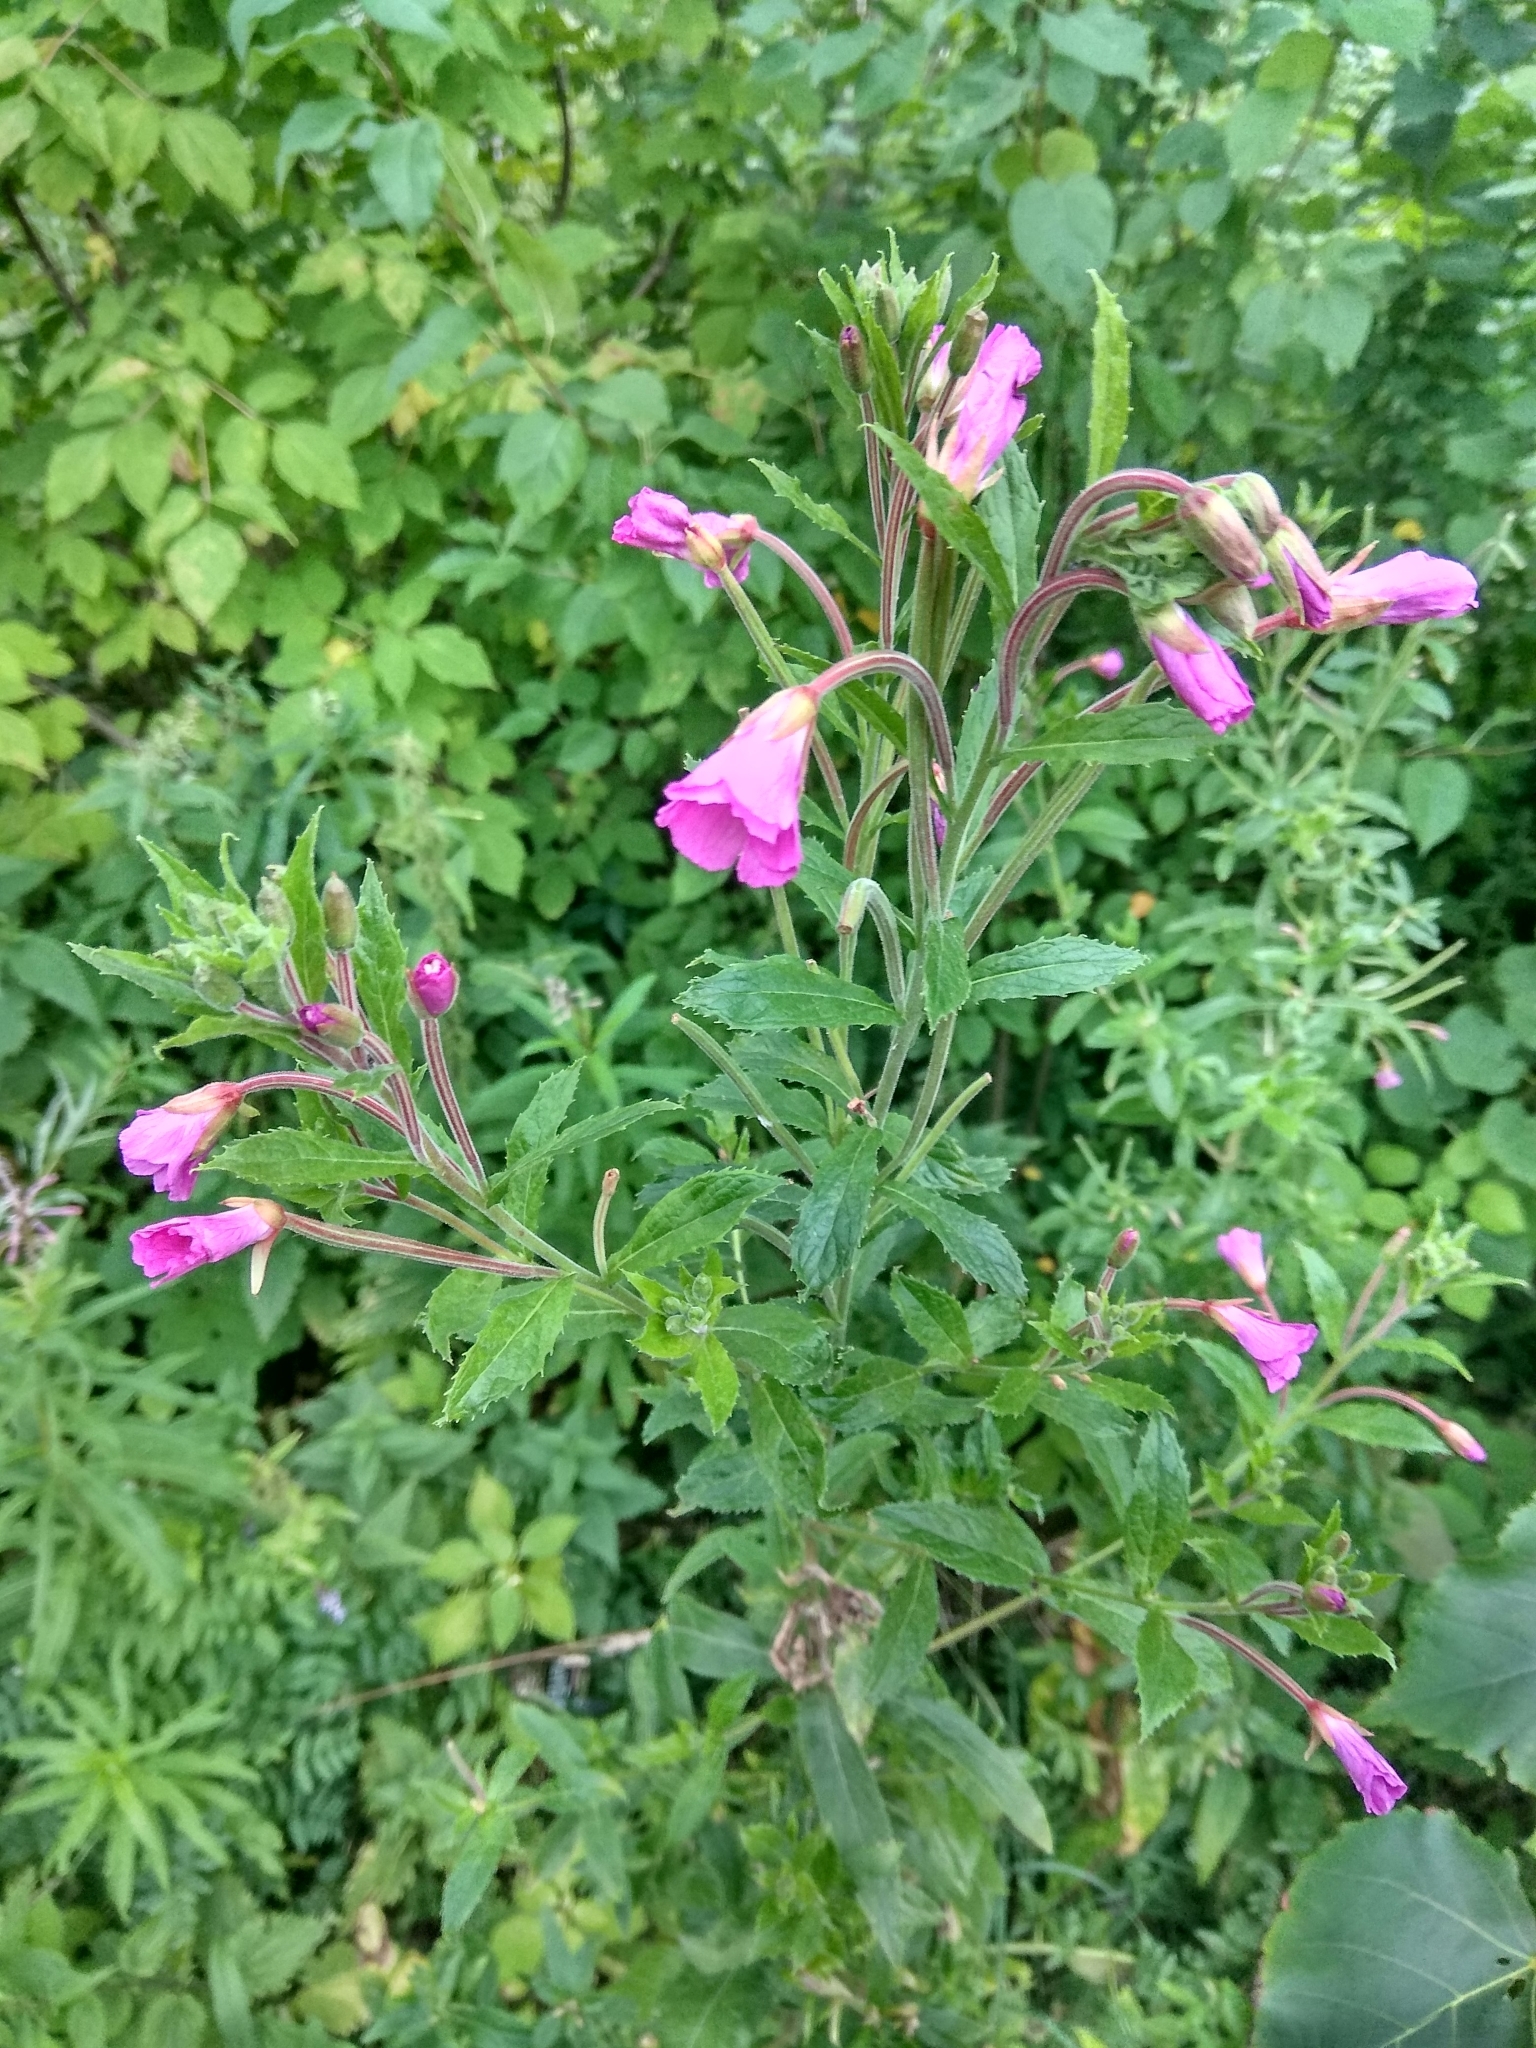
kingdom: Plantae
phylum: Tracheophyta
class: Magnoliopsida
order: Myrtales
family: Onagraceae
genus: Epilobium
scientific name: Epilobium hirsutum
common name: Great willowherb
